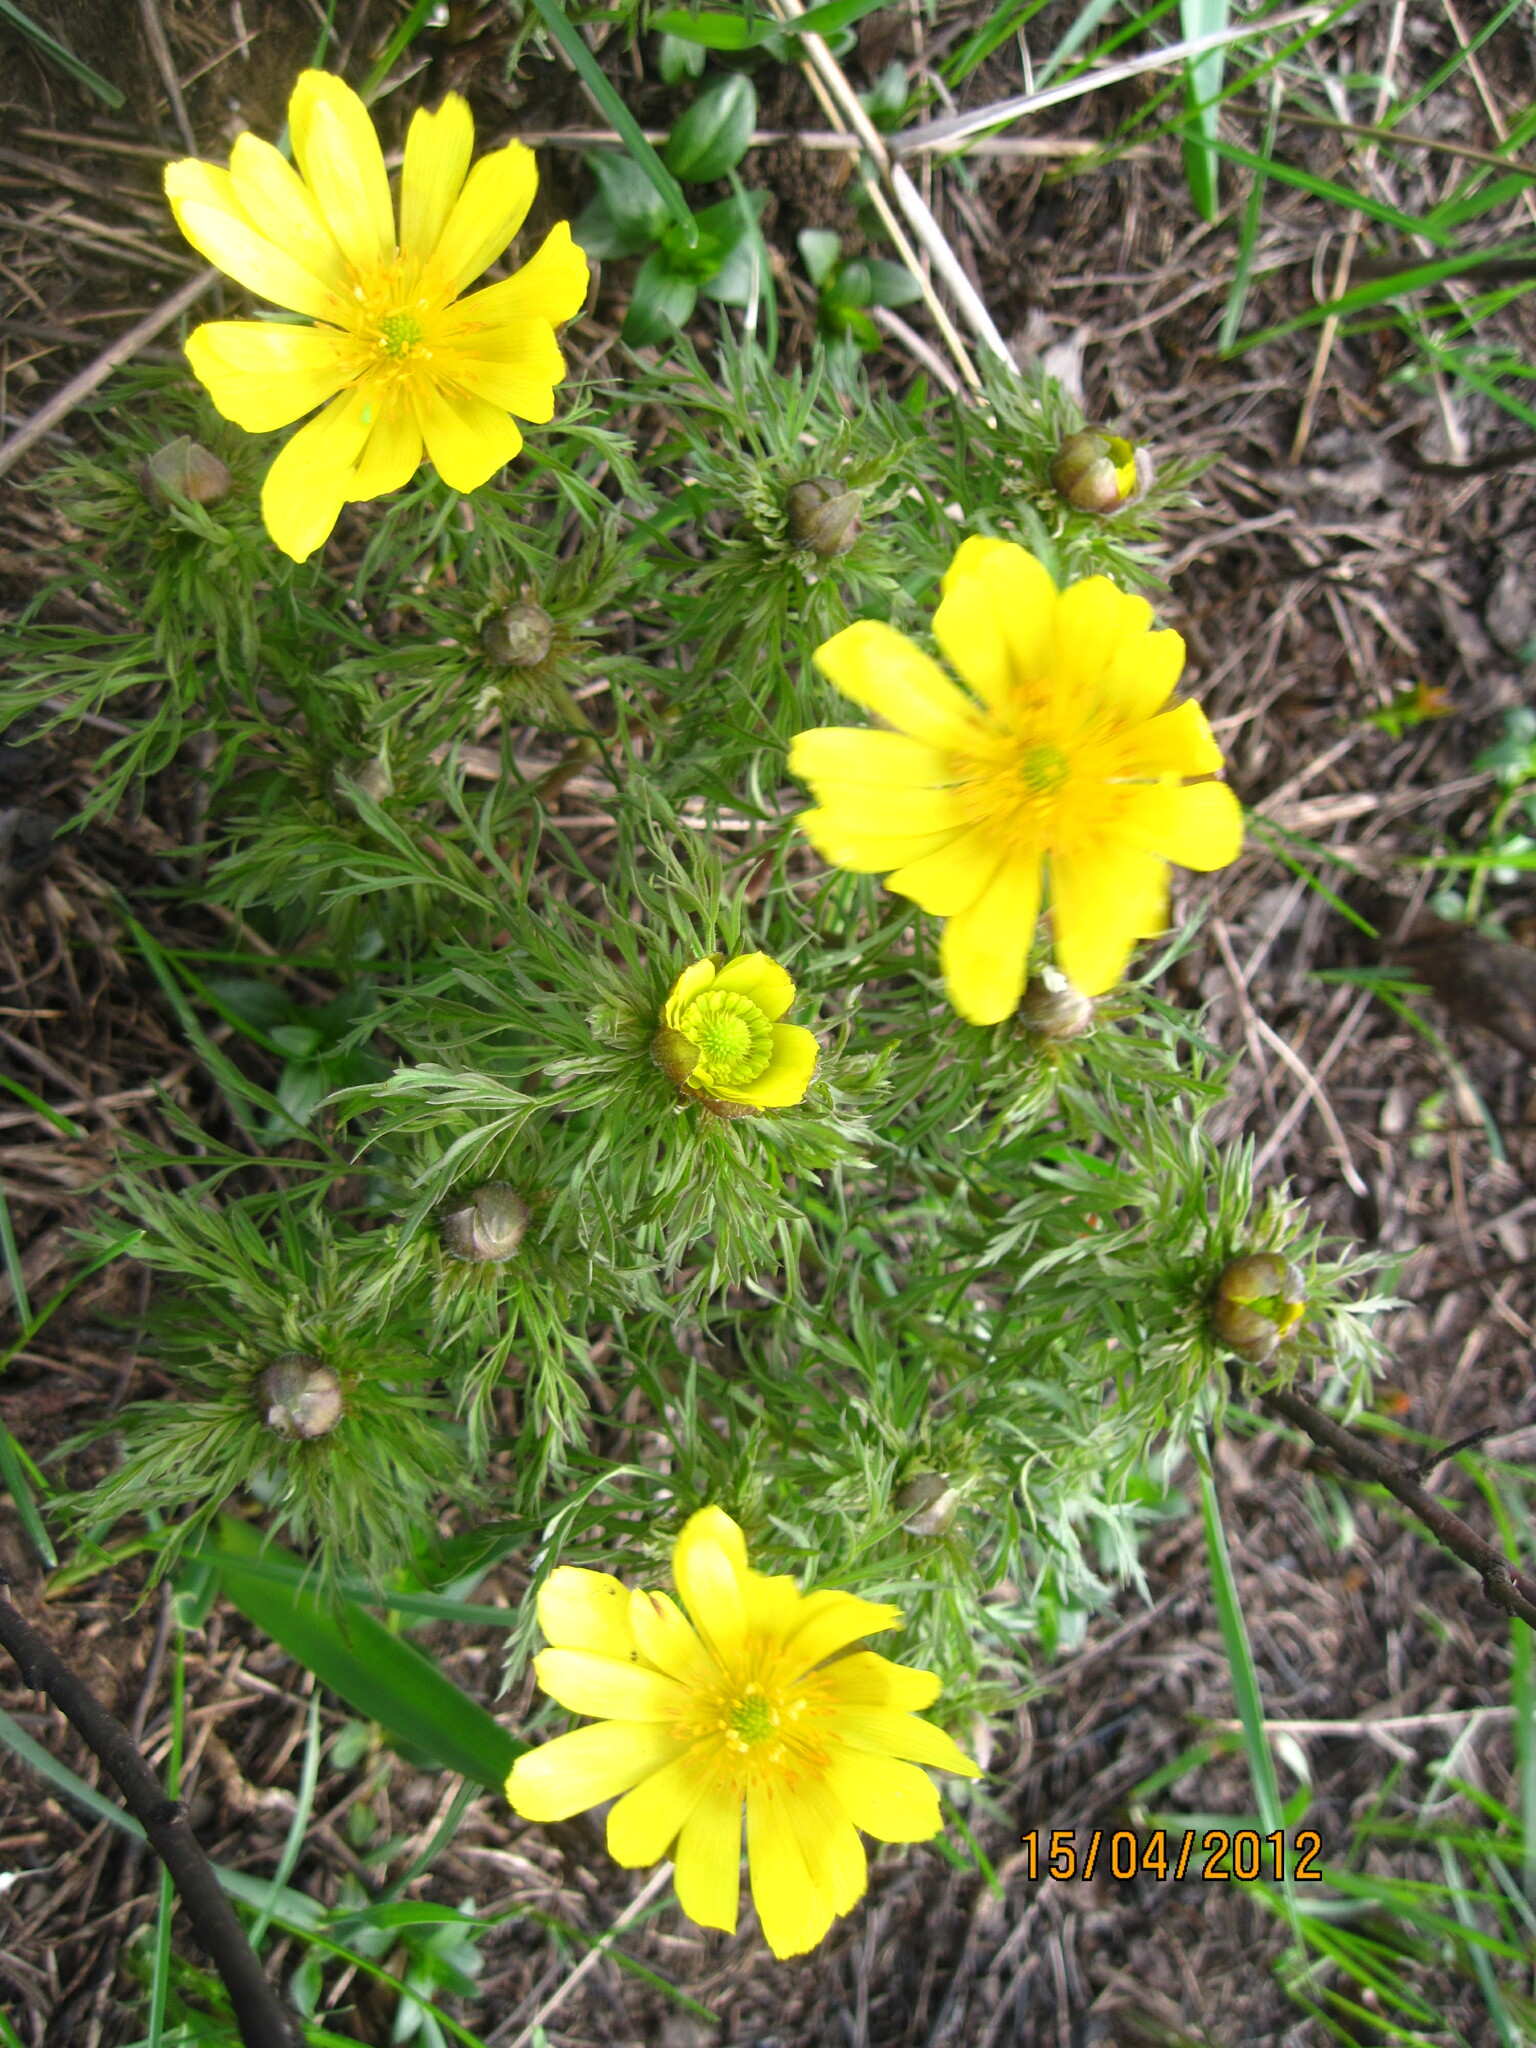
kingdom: Plantae
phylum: Tracheophyta
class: Magnoliopsida
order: Ranunculales
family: Ranunculaceae
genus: Adonis
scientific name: Adonis volgensis
